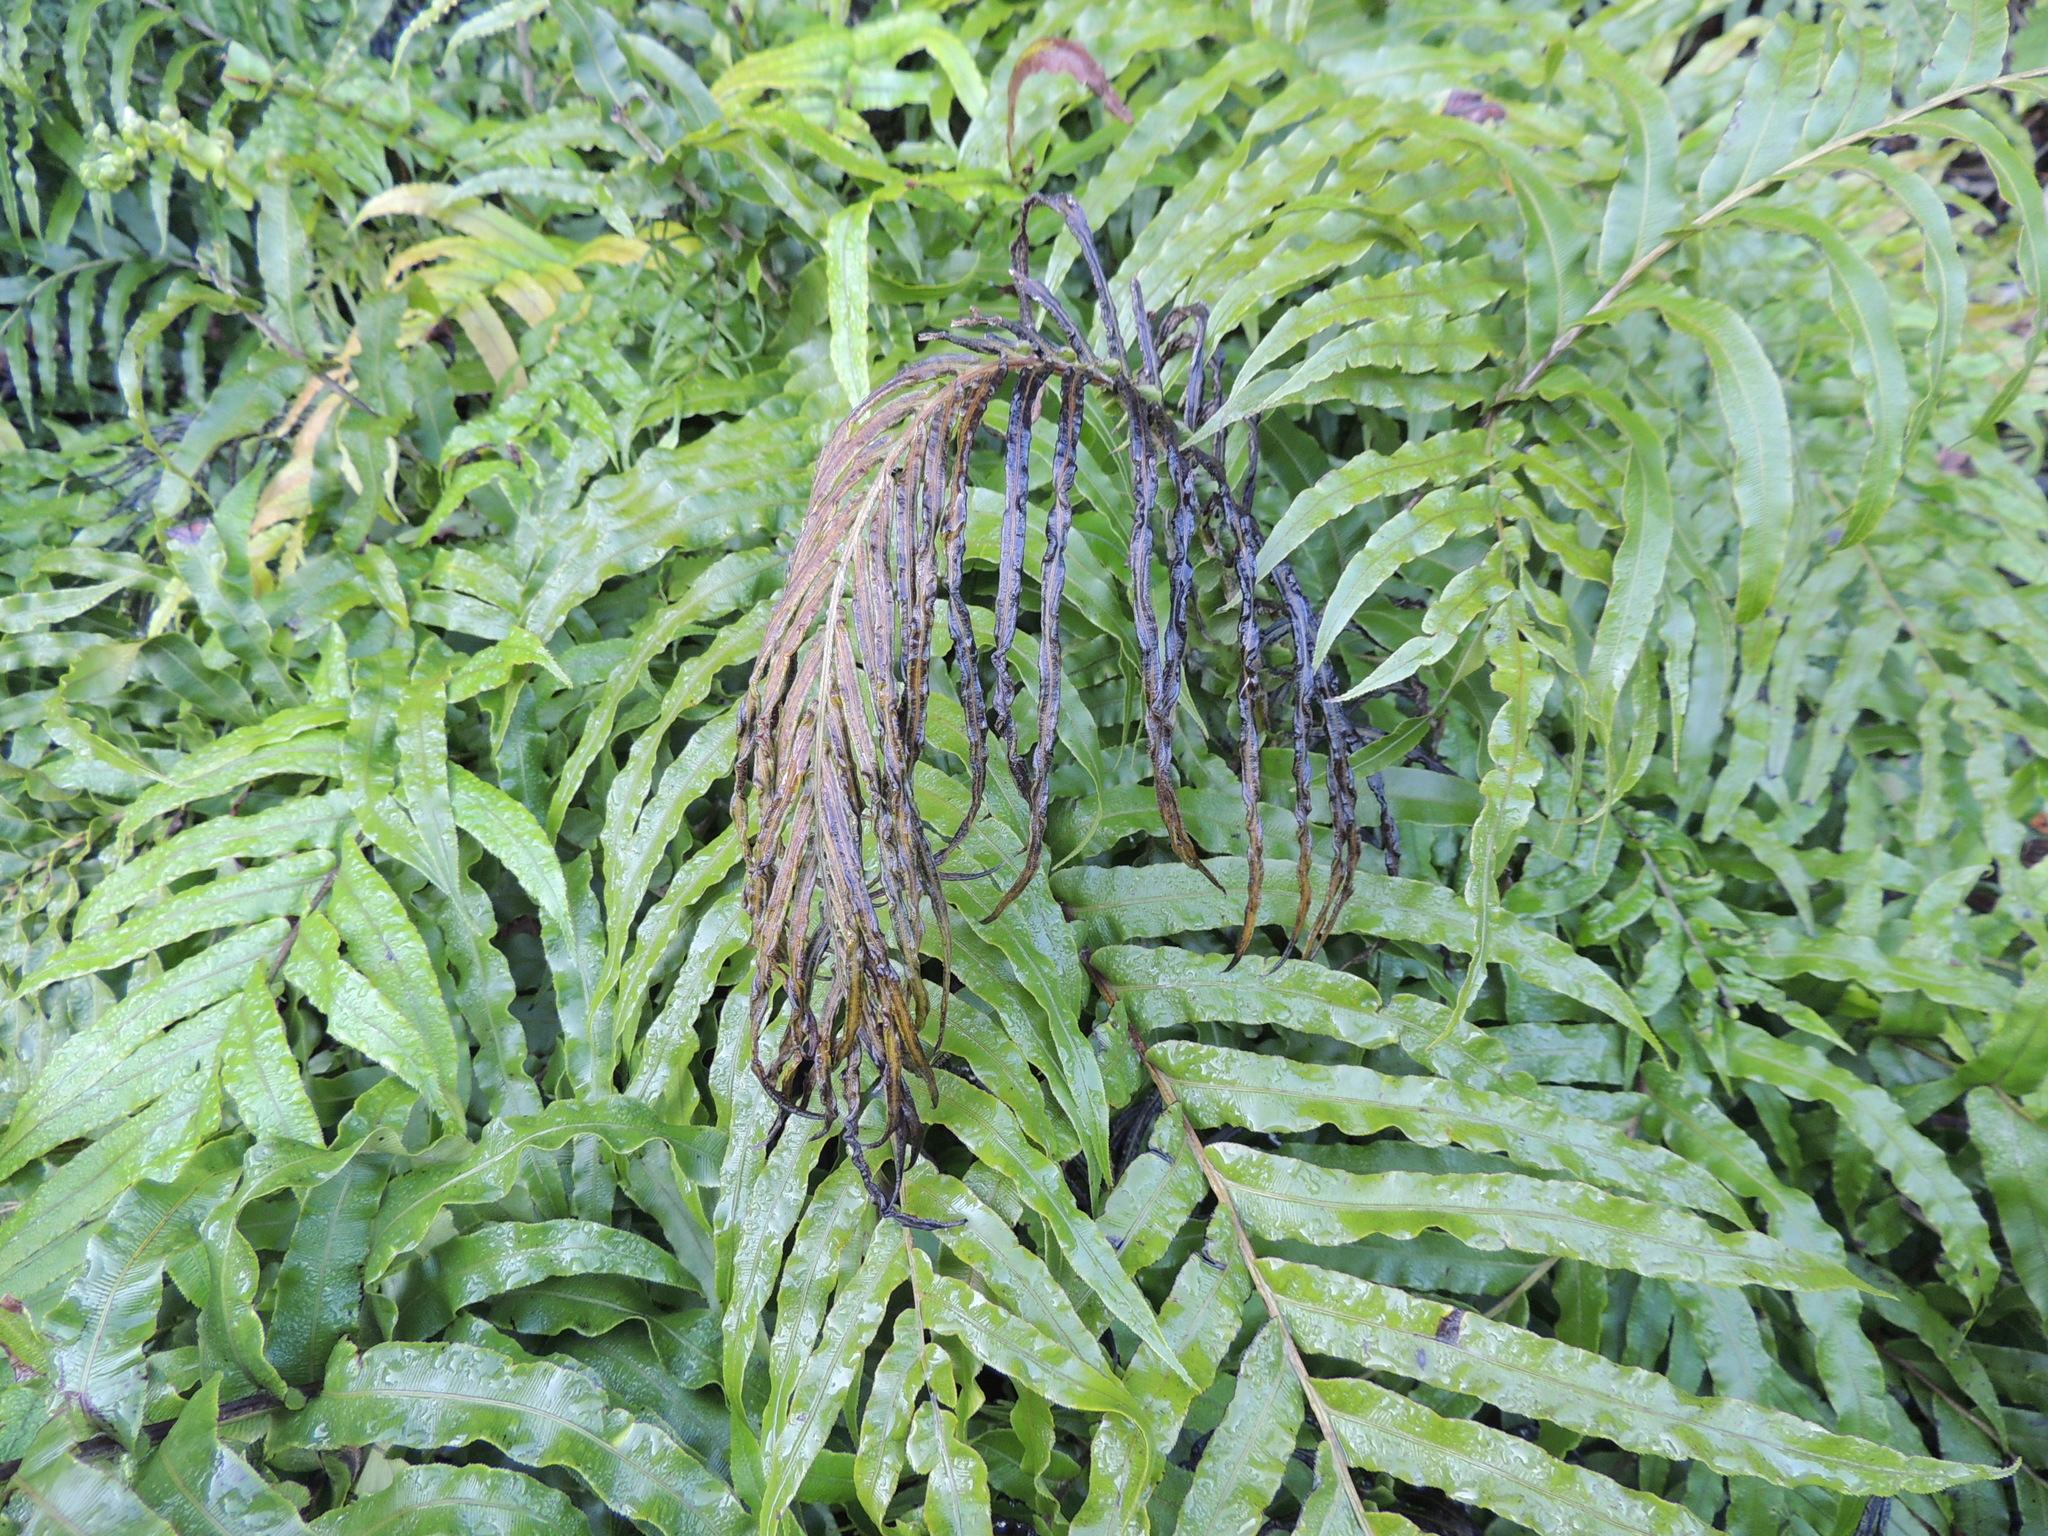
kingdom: Plantae
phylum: Tracheophyta
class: Polypodiopsida
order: Polypodiales
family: Blechnaceae
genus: Parablechnum
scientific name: Parablechnum novae-zelandiae
